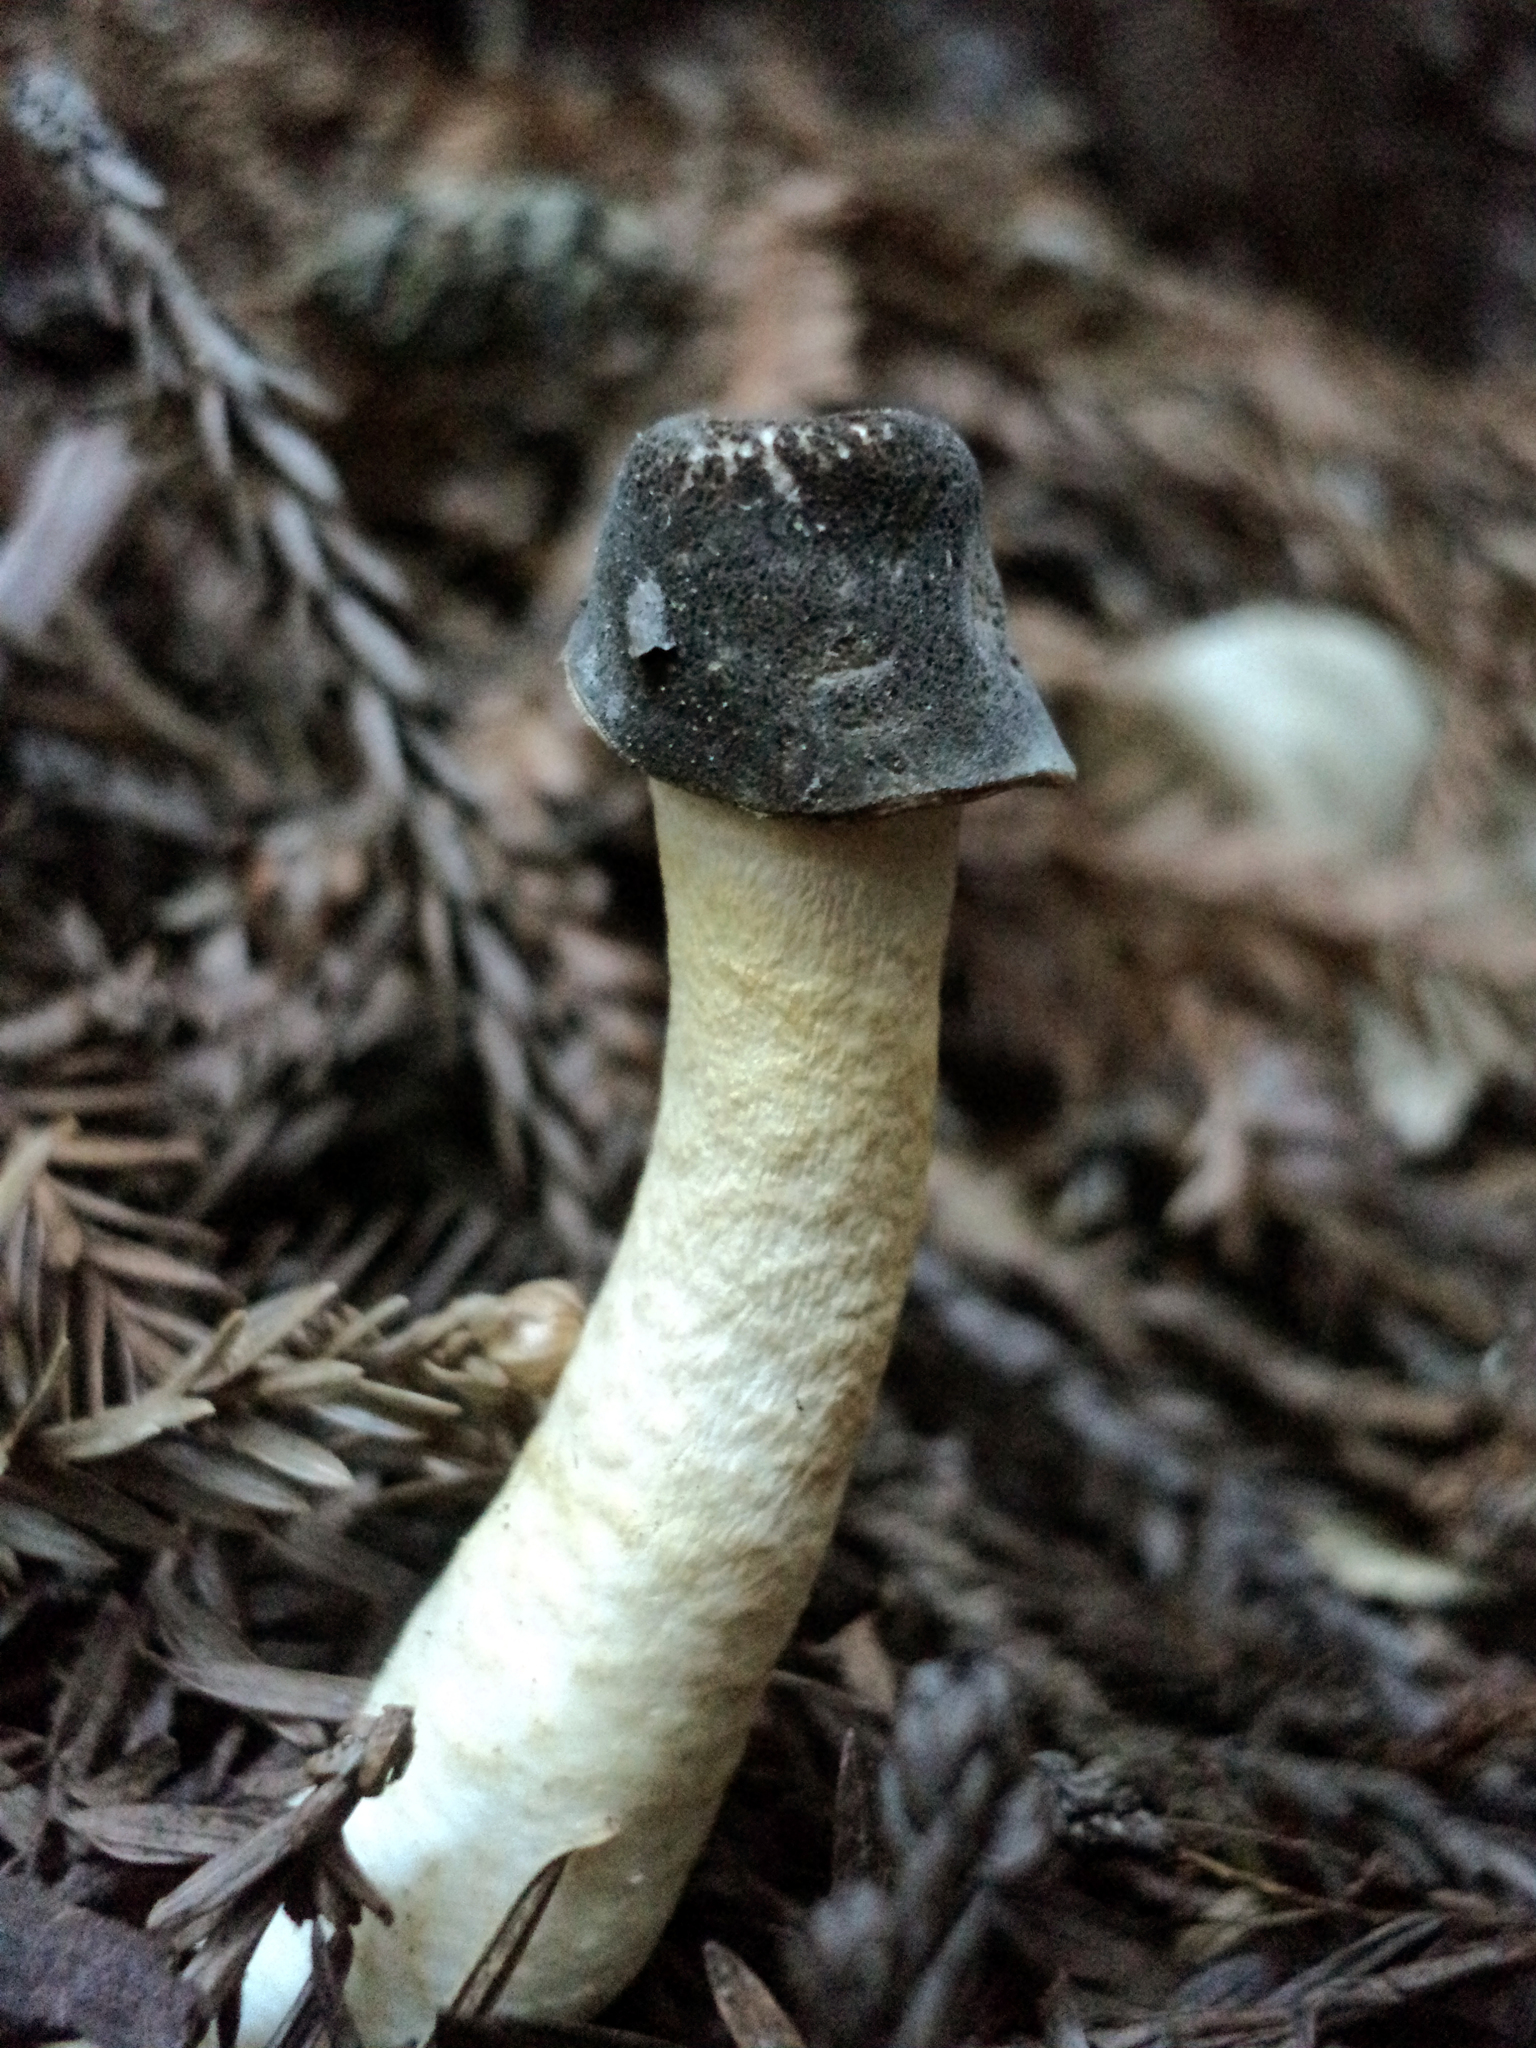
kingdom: Fungi
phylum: Ascomycota
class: Pezizomycetes
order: Pezizales
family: Morchellaceae
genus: Verpa
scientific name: Verpa conica
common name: Thimble morel
